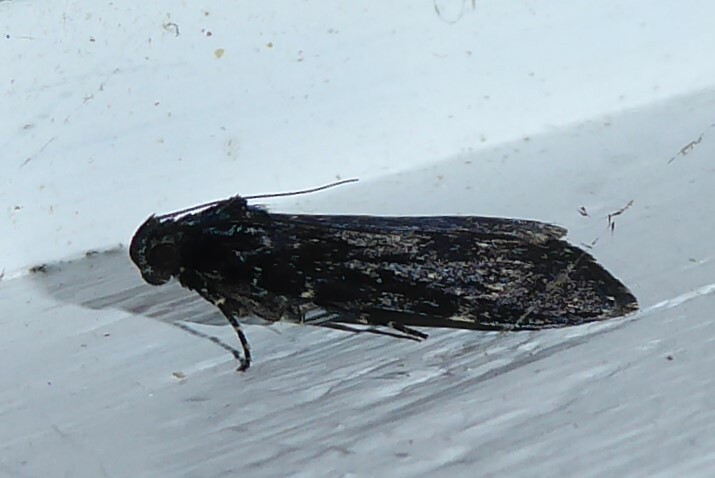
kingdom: Animalia
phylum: Arthropoda
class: Insecta
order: Lepidoptera
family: Pyralidae
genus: Stericta
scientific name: Stericta carbonalis
